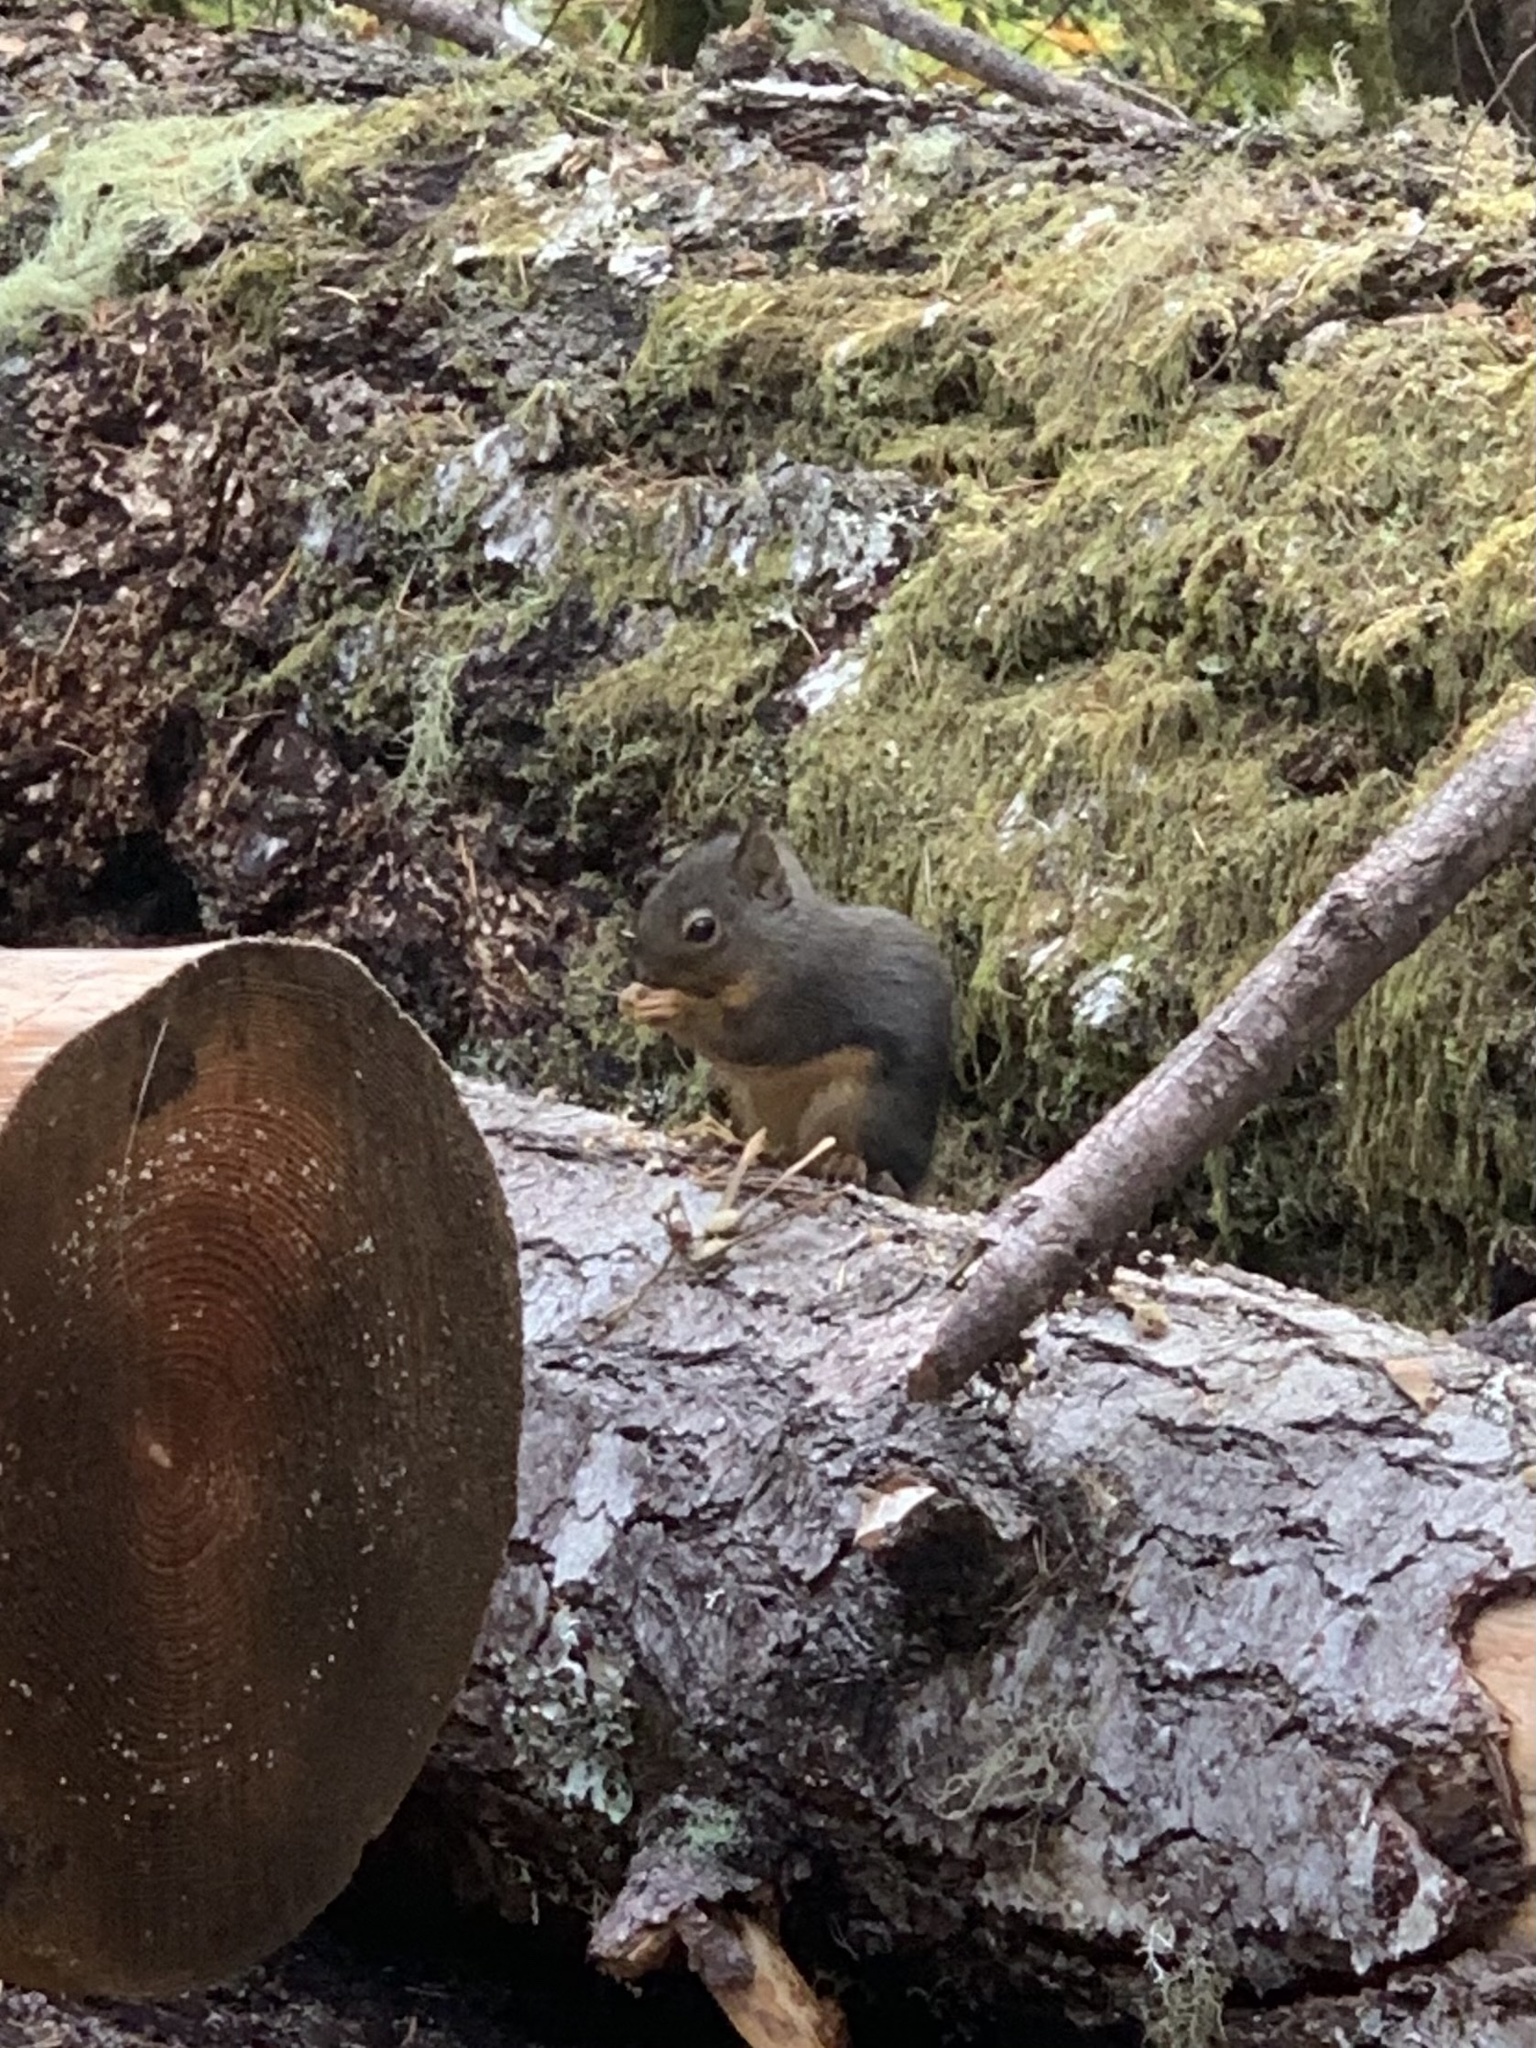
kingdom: Animalia
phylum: Chordata
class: Mammalia
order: Rodentia
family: Sciuridae
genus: Tamiasciurus
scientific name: Tamiasciurus douglasii
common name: Douglas's squirrel
